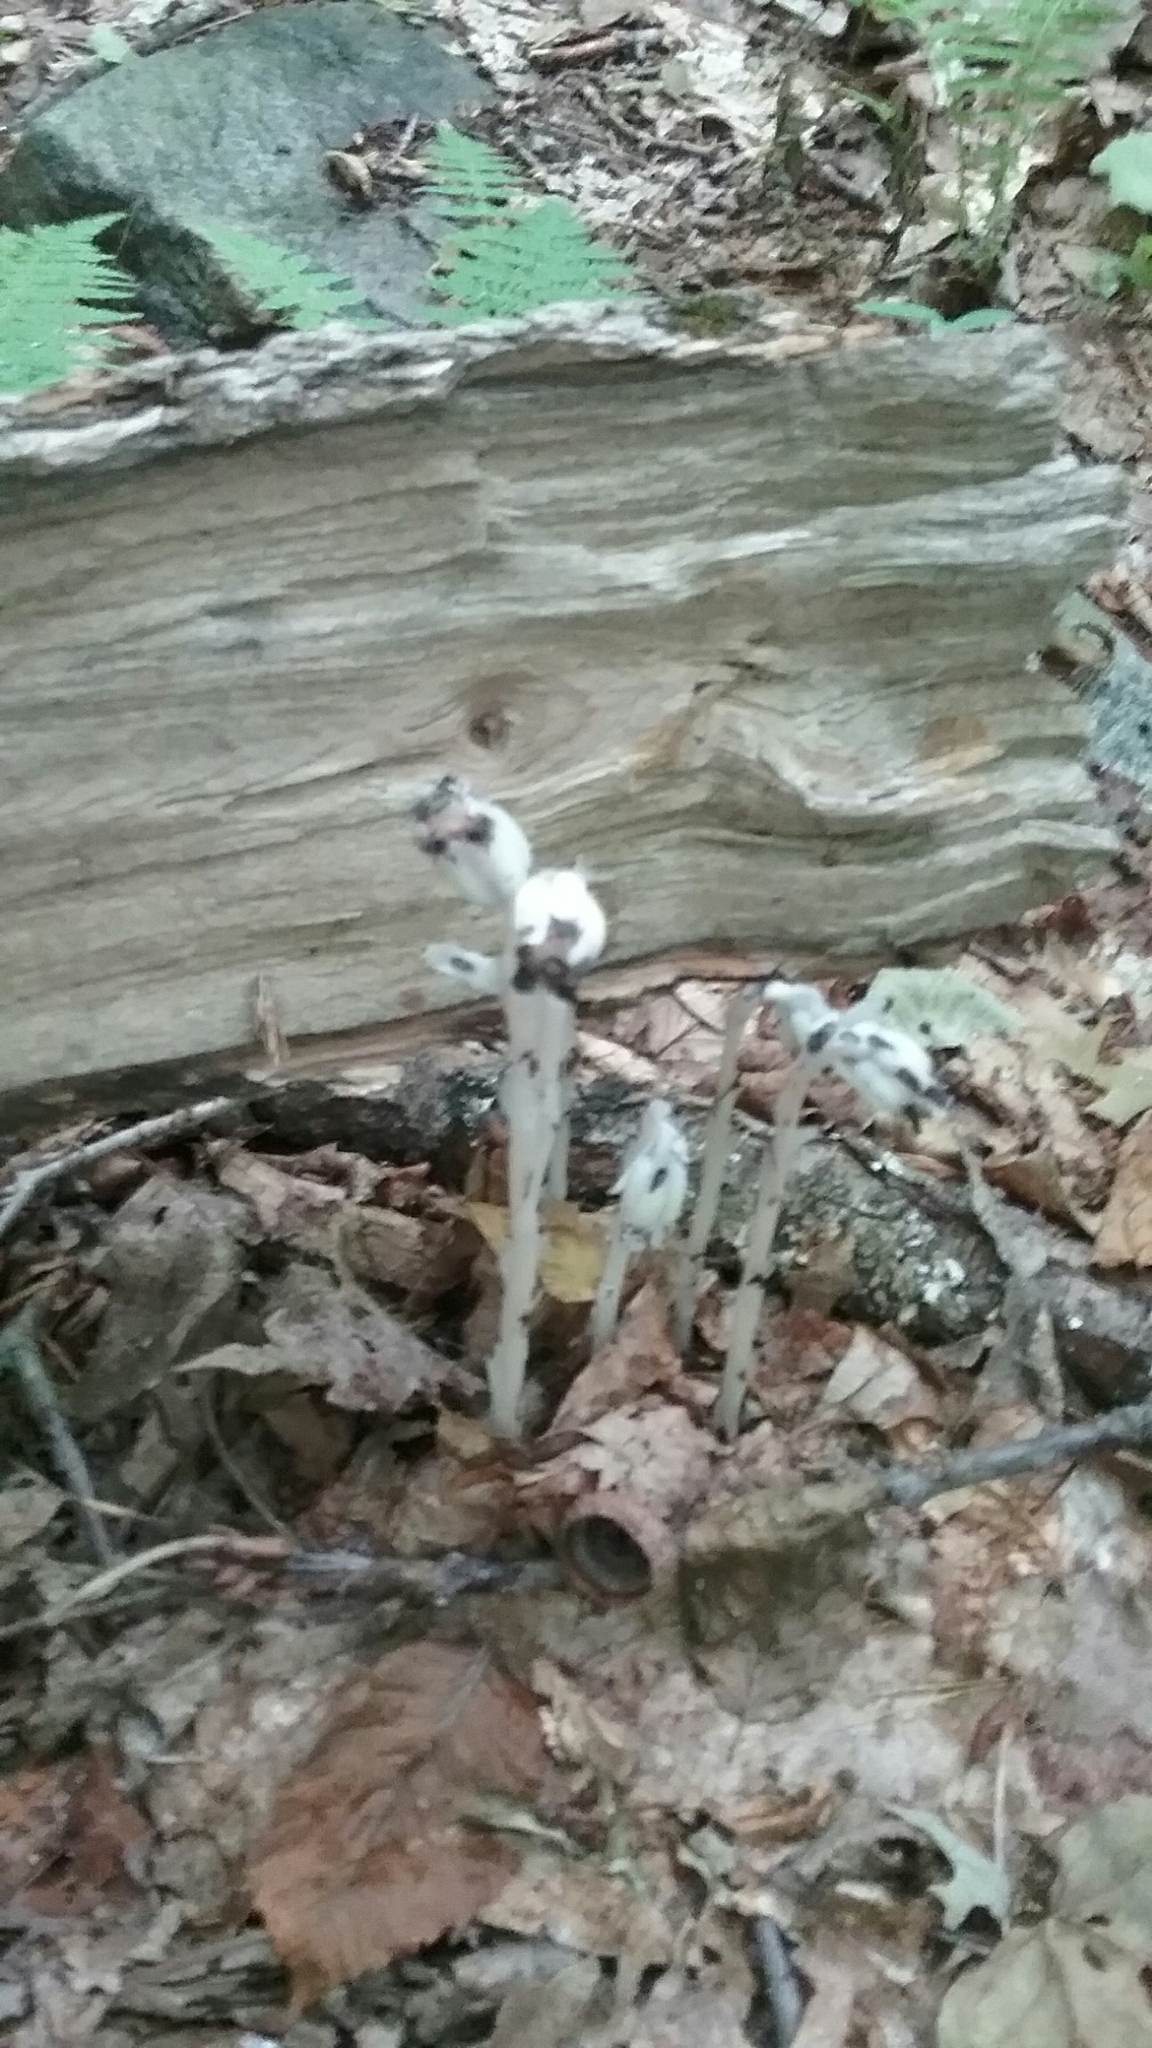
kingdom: Plantae
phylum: Tracheophyta
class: Magnoliopsida
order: Ericales
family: Ericaceae
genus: Monotropa
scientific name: Monotropa uniflora
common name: Convulsion root
